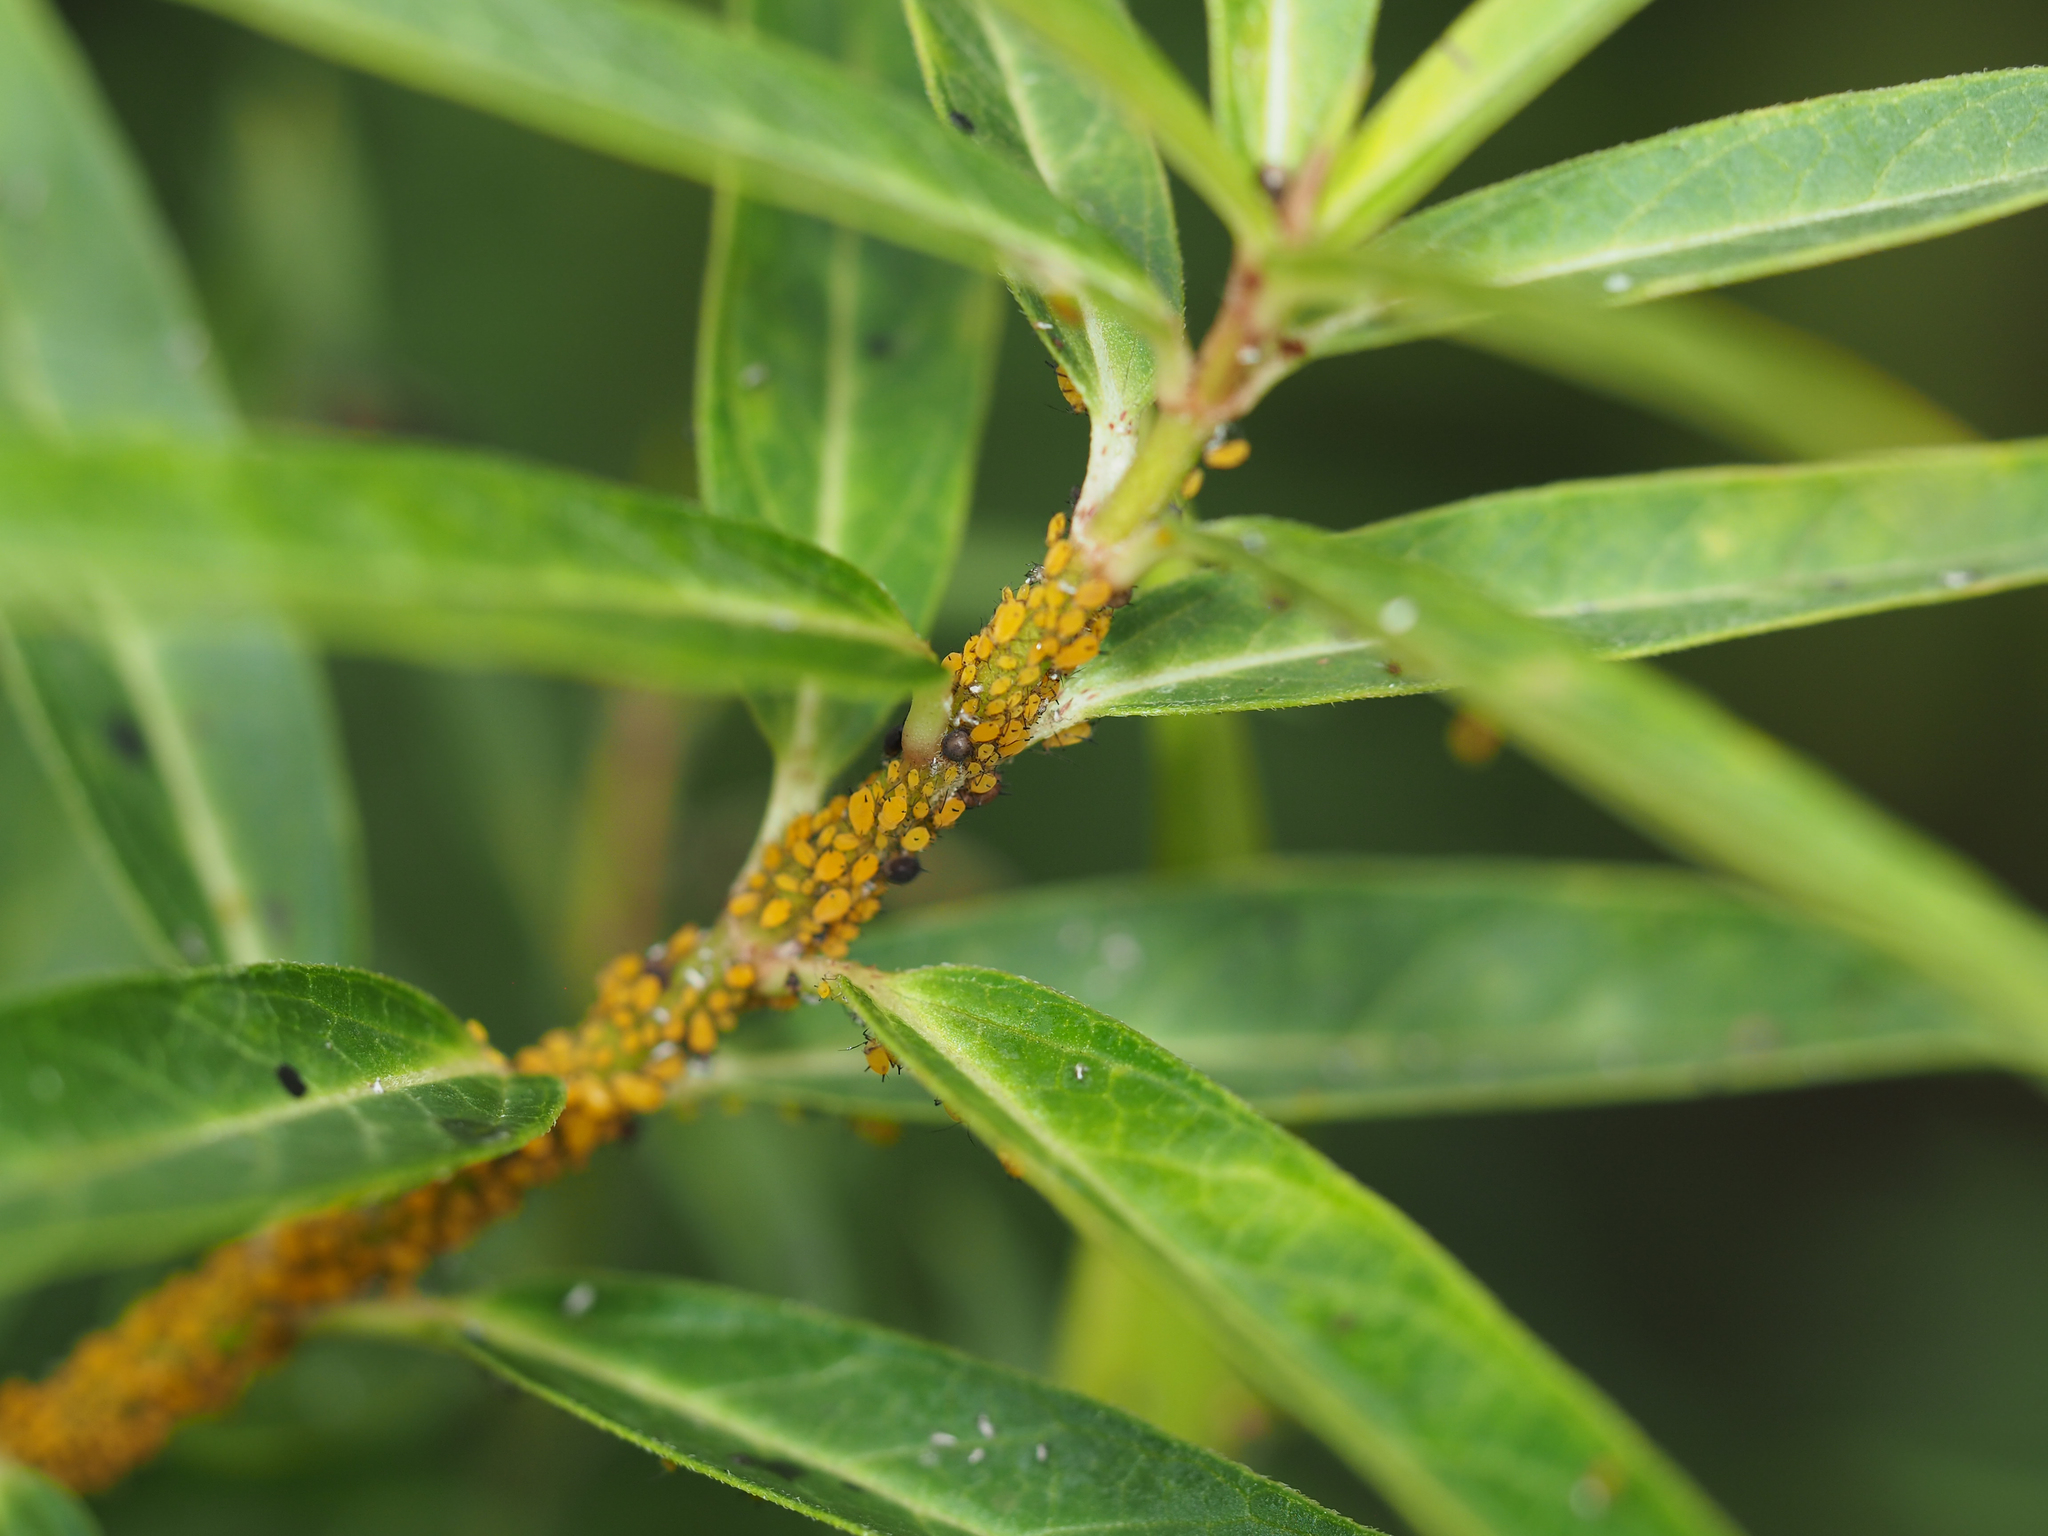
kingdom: Animalia
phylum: Arthropoda
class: Insecta
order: Hemiptera
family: Aphididae
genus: Aphis
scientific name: Aphis nerii
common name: Oleander aphid
